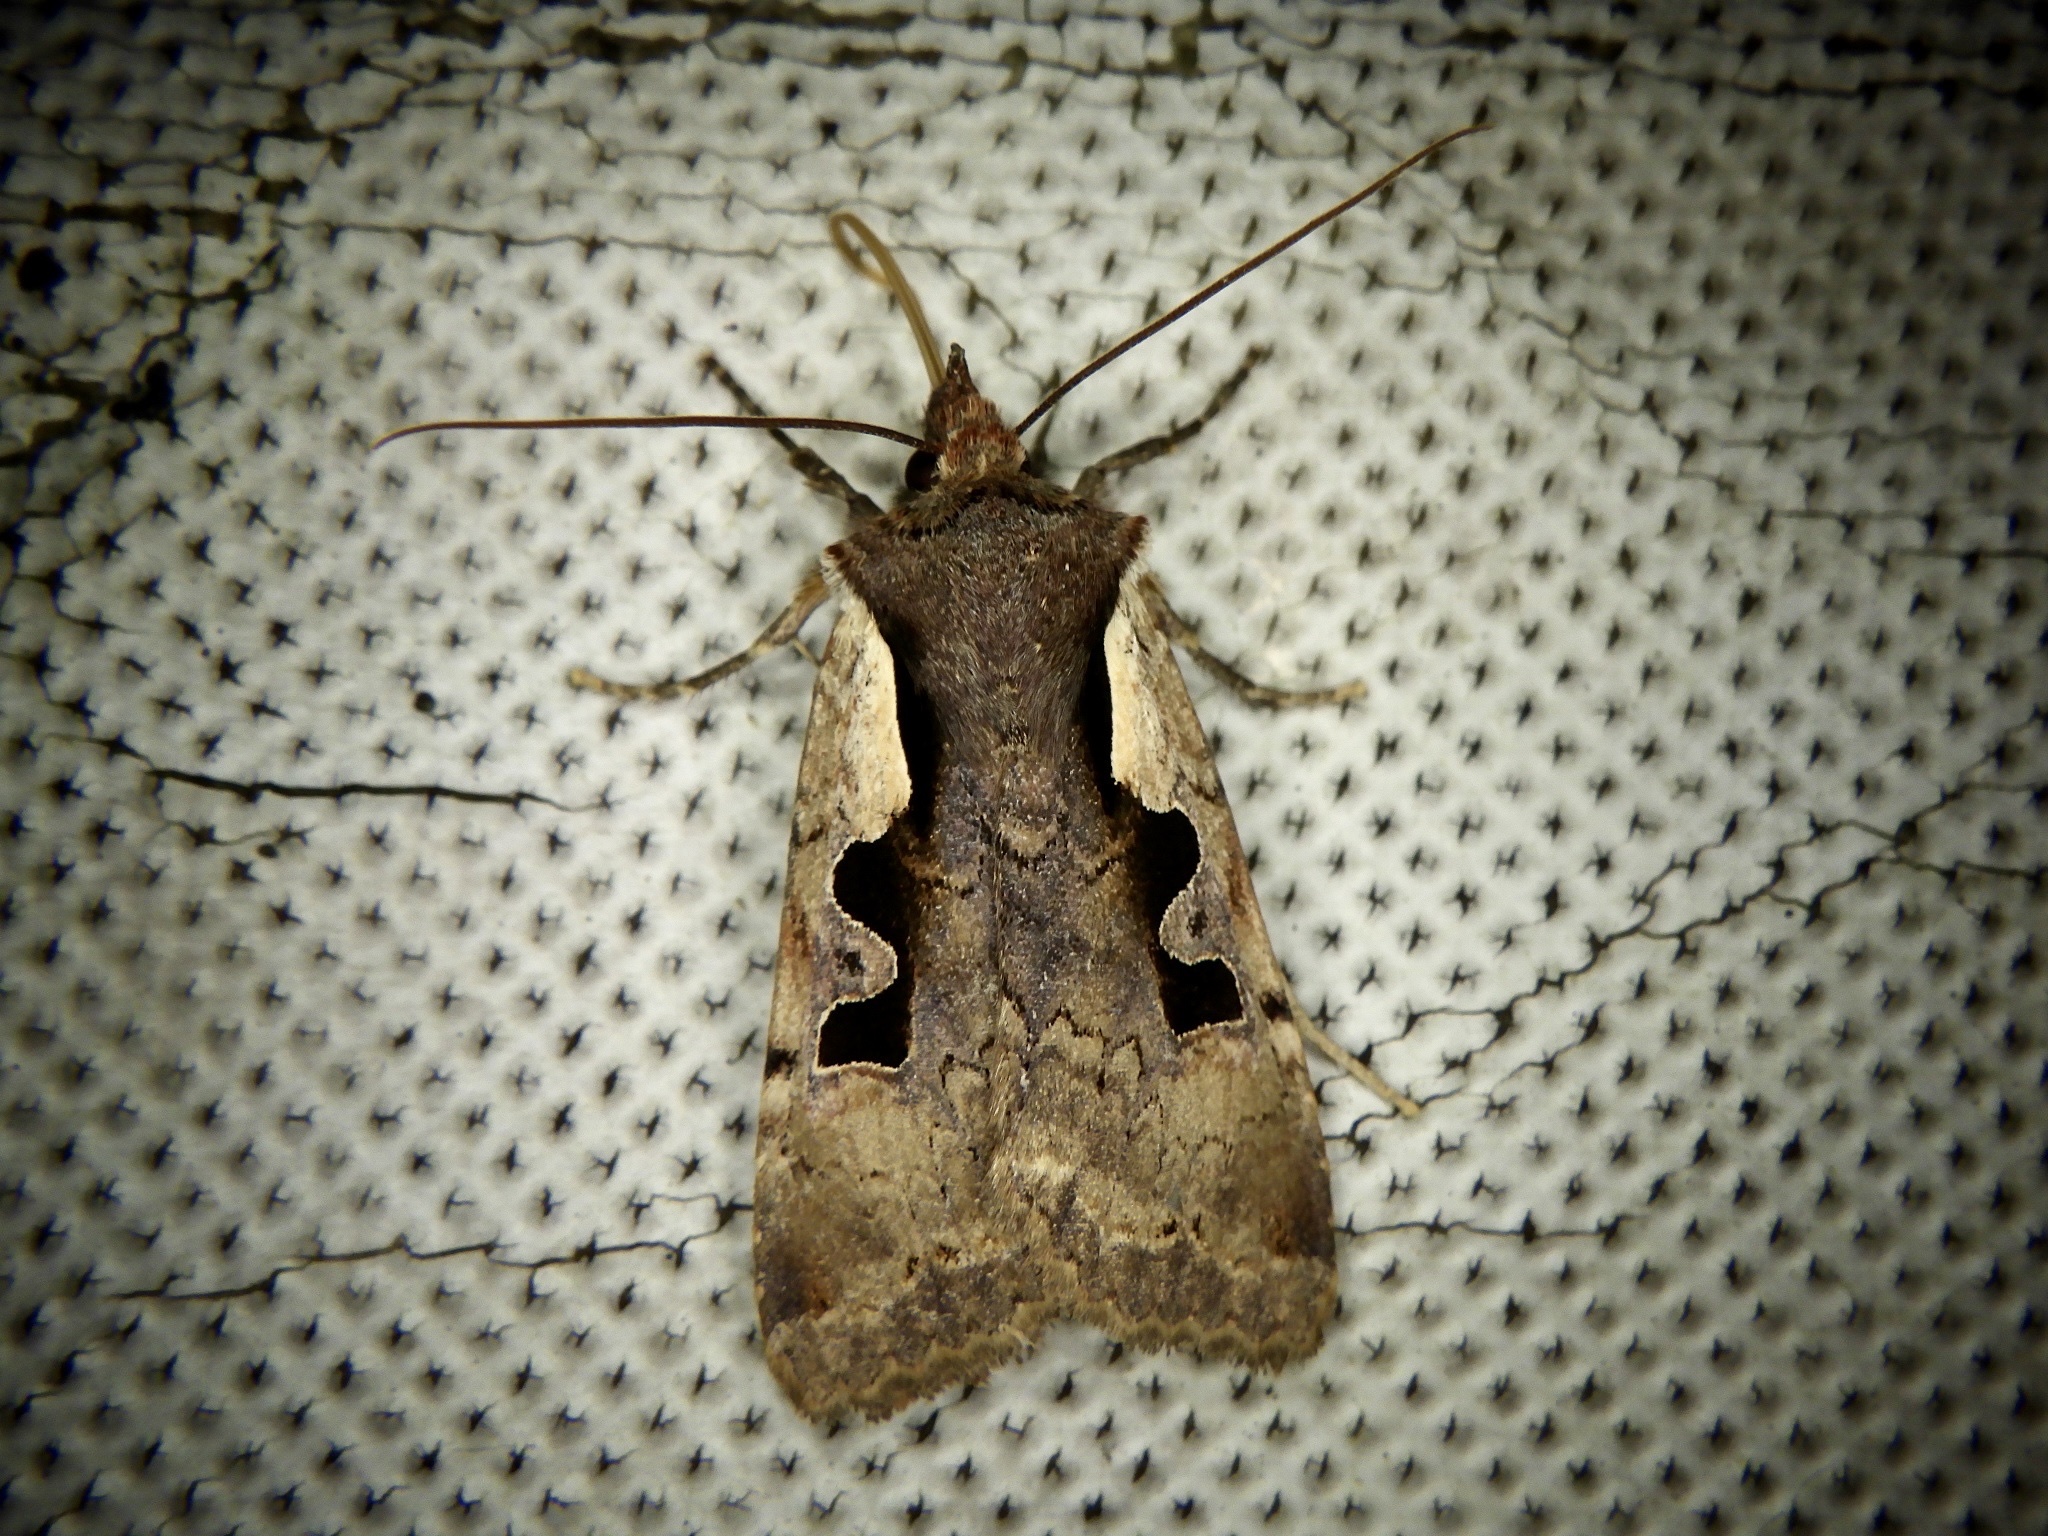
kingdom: Animalia
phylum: Arthropoda
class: Insecta
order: Lepidoptera
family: Noctuidae
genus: Sugitania
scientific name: Sugitania lepida
